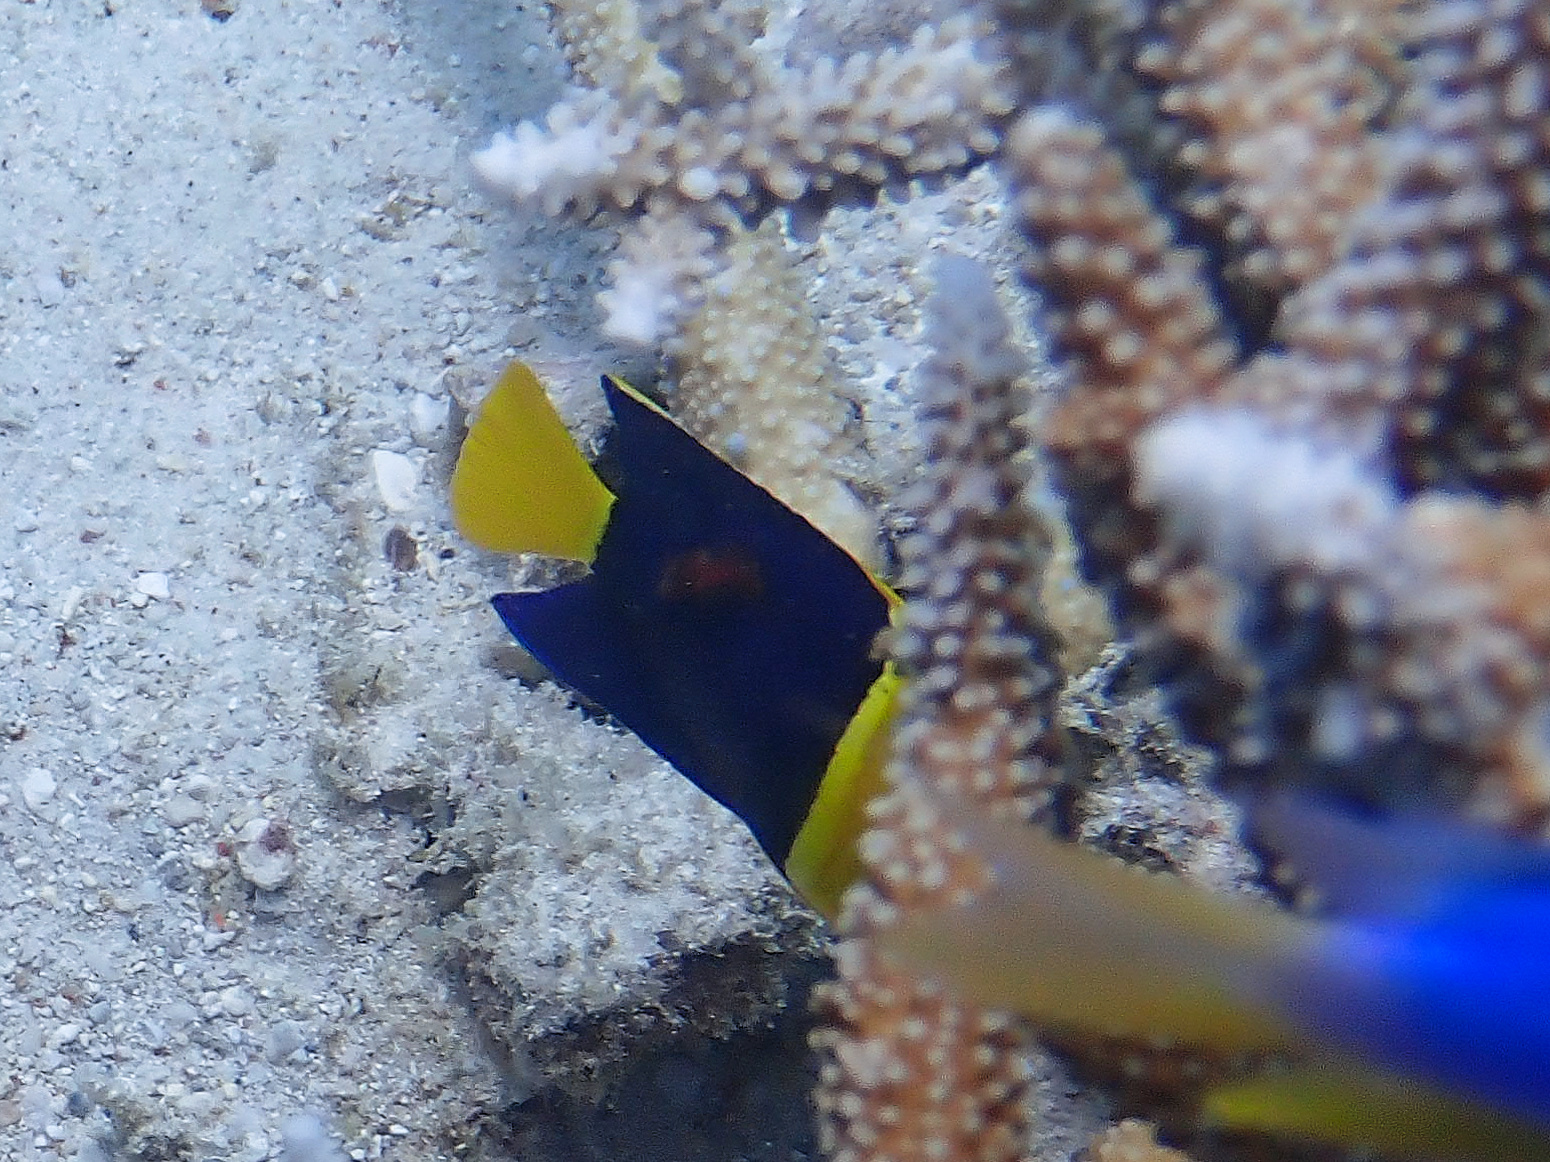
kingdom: Animalia
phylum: Chordata
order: Perciformes
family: Pomacanthidae
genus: Centropyge
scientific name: Centropyge bicolor
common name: Bicolor angelfish
